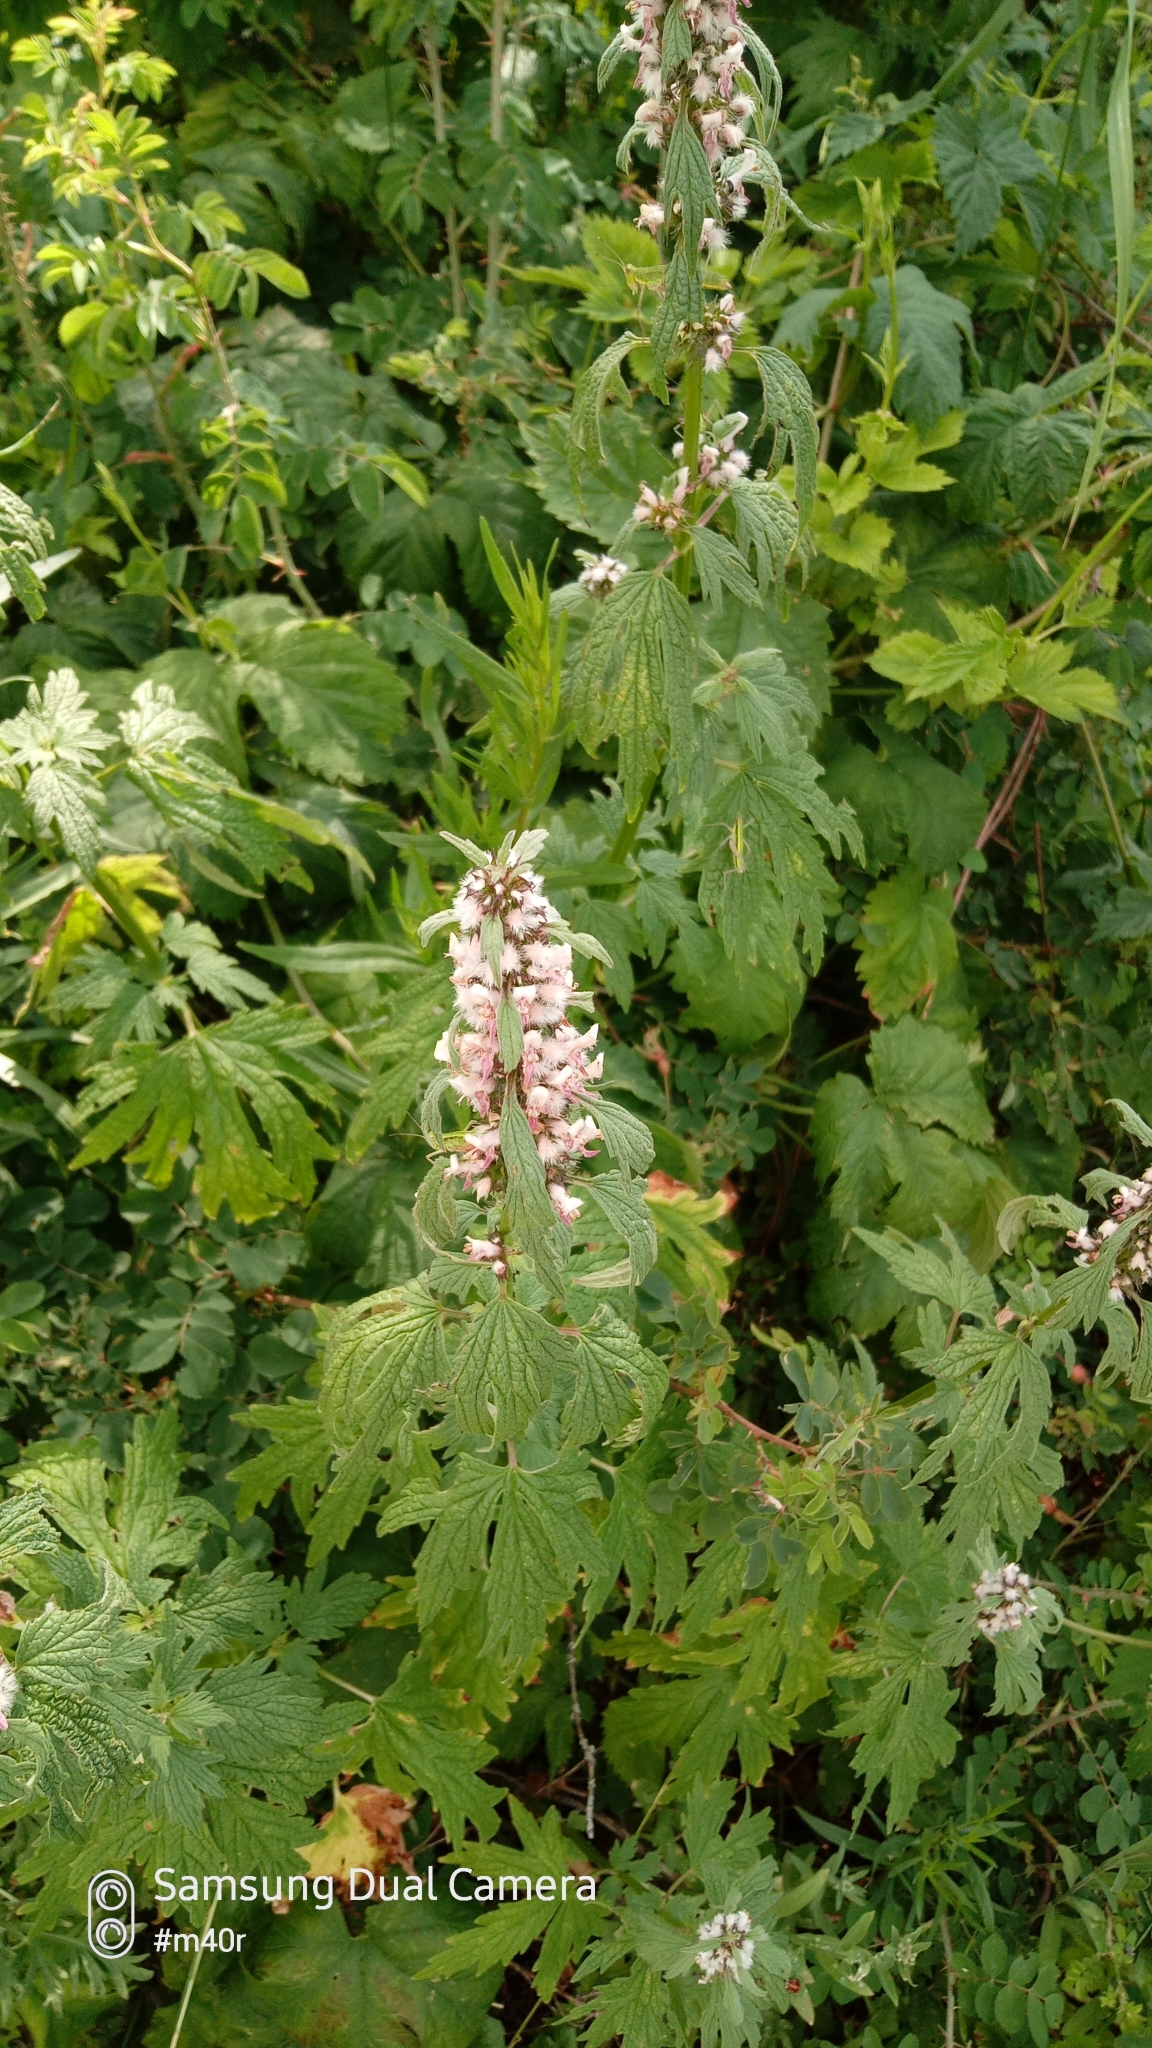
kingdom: Plantae
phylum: Tracheophyta
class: Magnoliopsida
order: Lamiales
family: Lamiaceae
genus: Leonurus
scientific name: Leonurus turkestanicus
